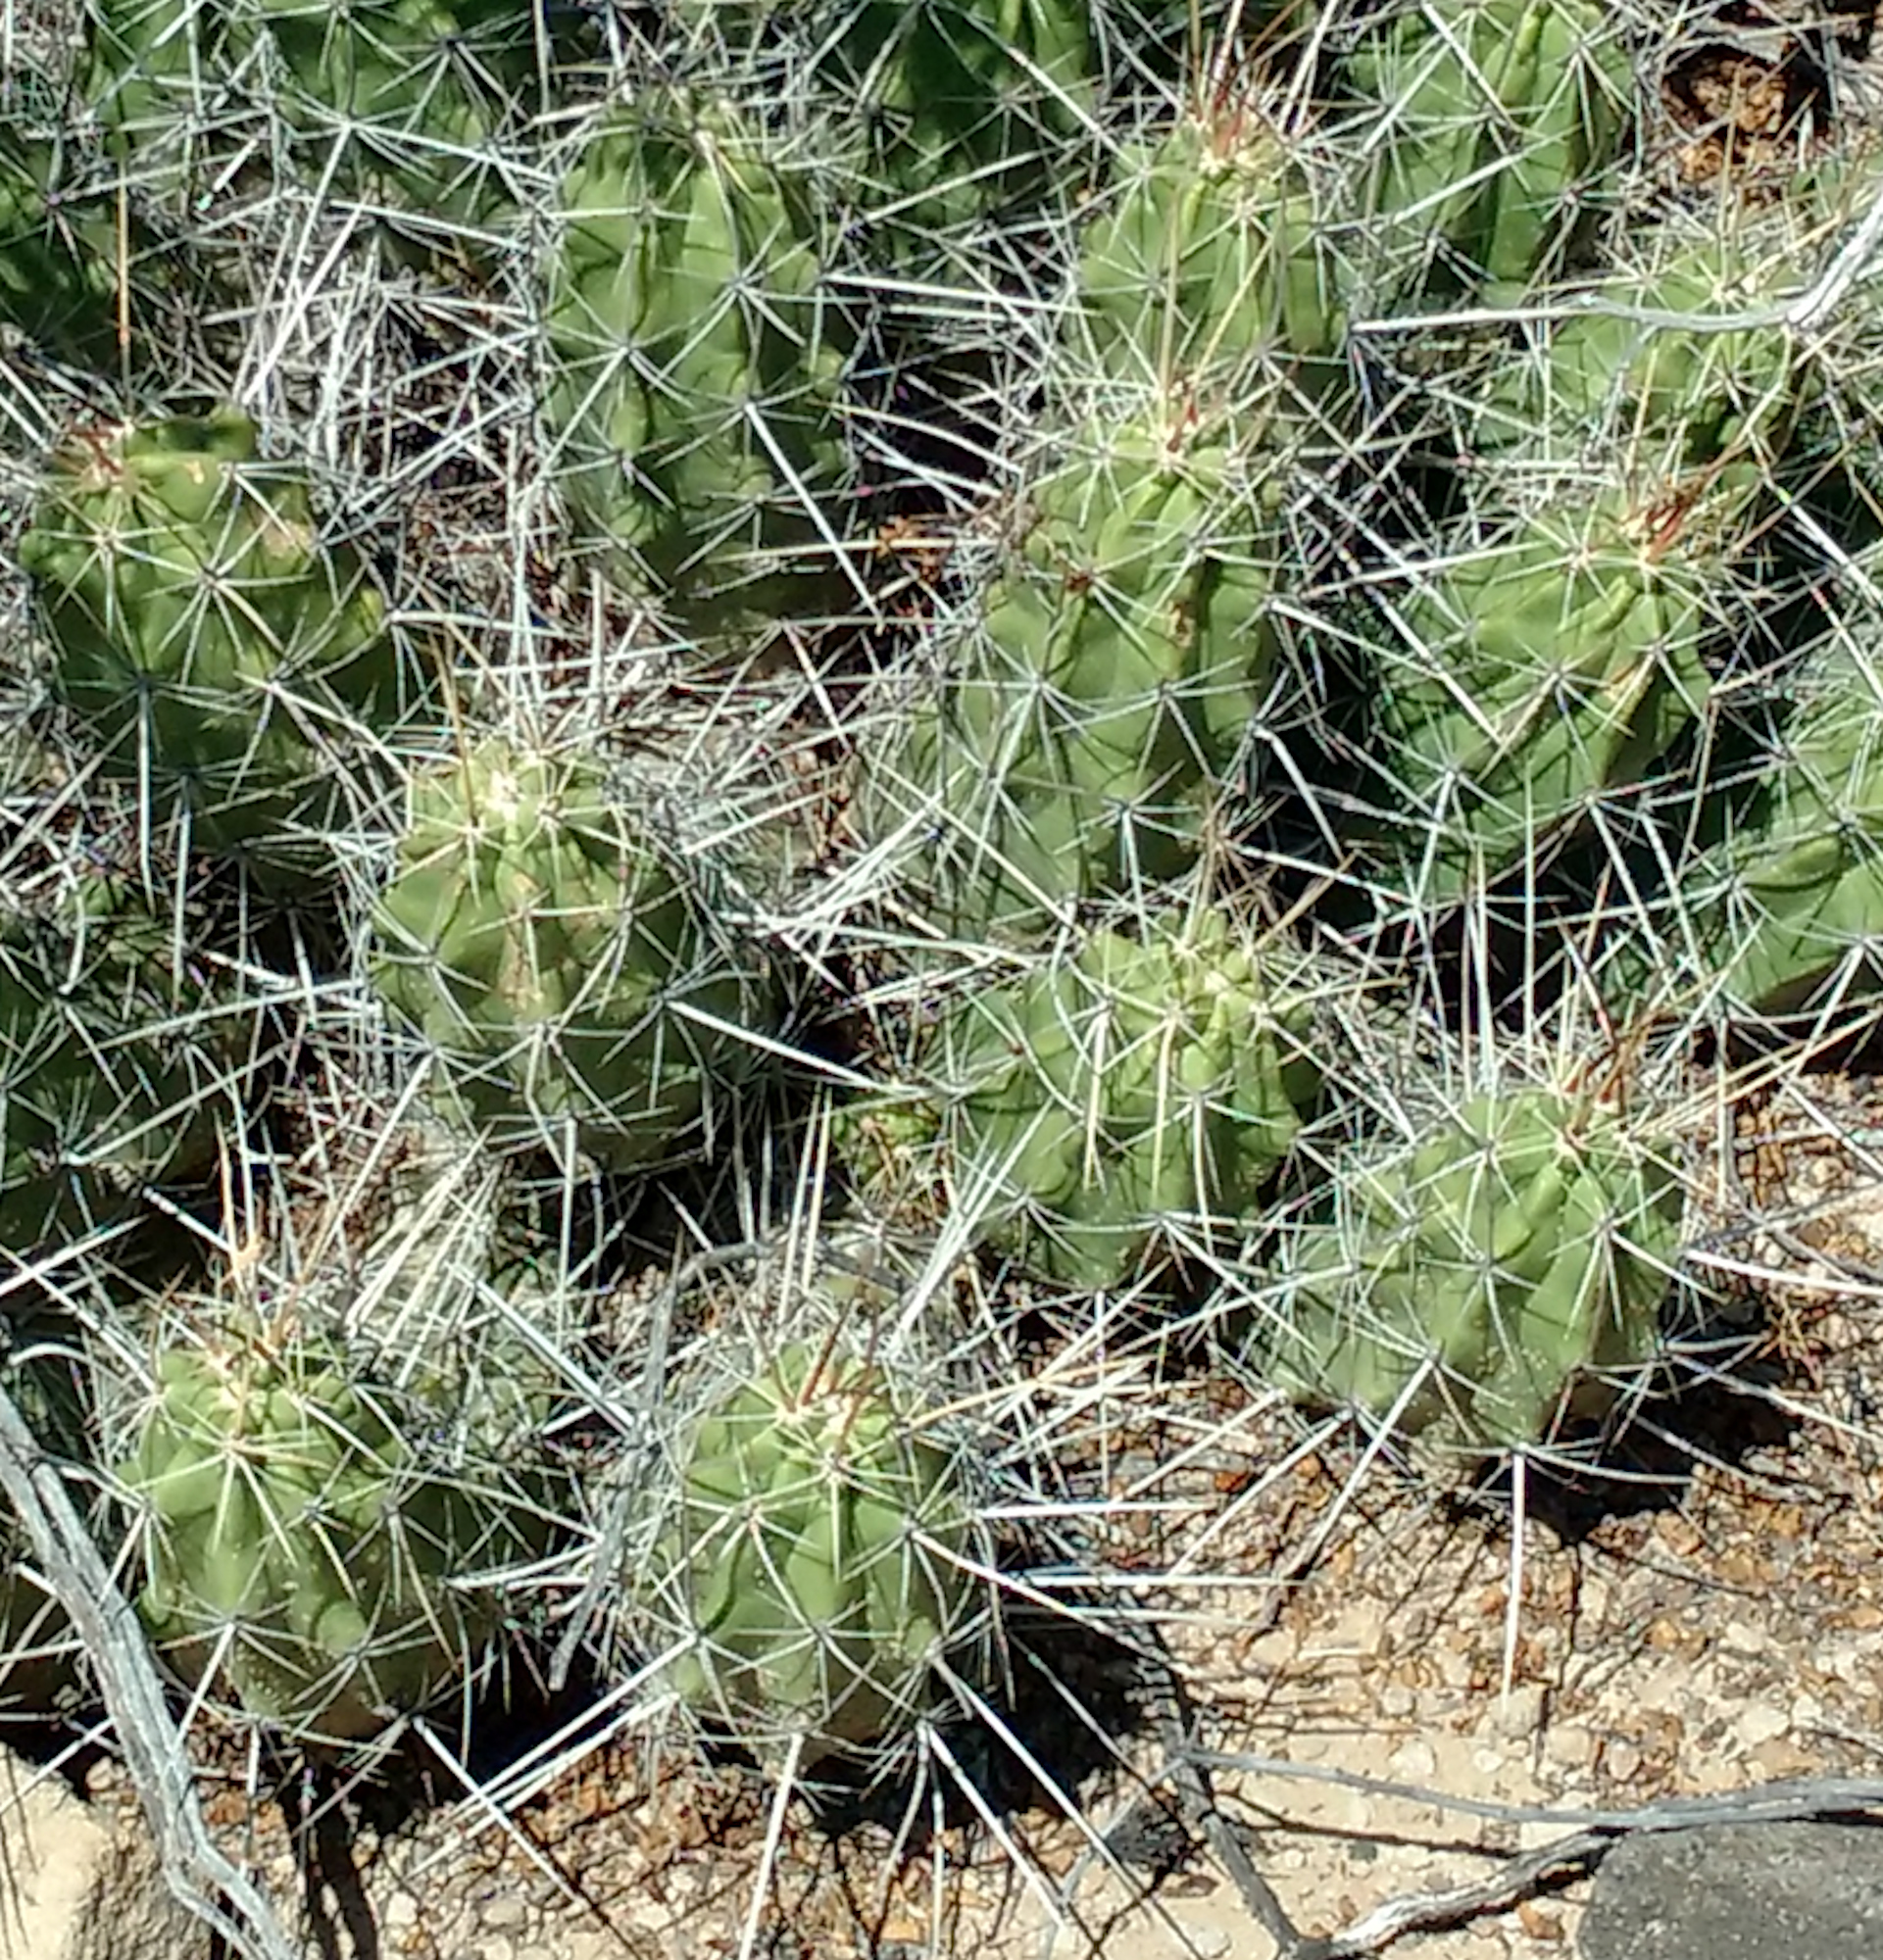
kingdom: Plantae
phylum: Tracheophyta
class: Magnoliopsida
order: Caryophyllales
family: Cactaceae
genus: Echinocereus
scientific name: Echinocereus enneacanthus
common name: Pitaya
